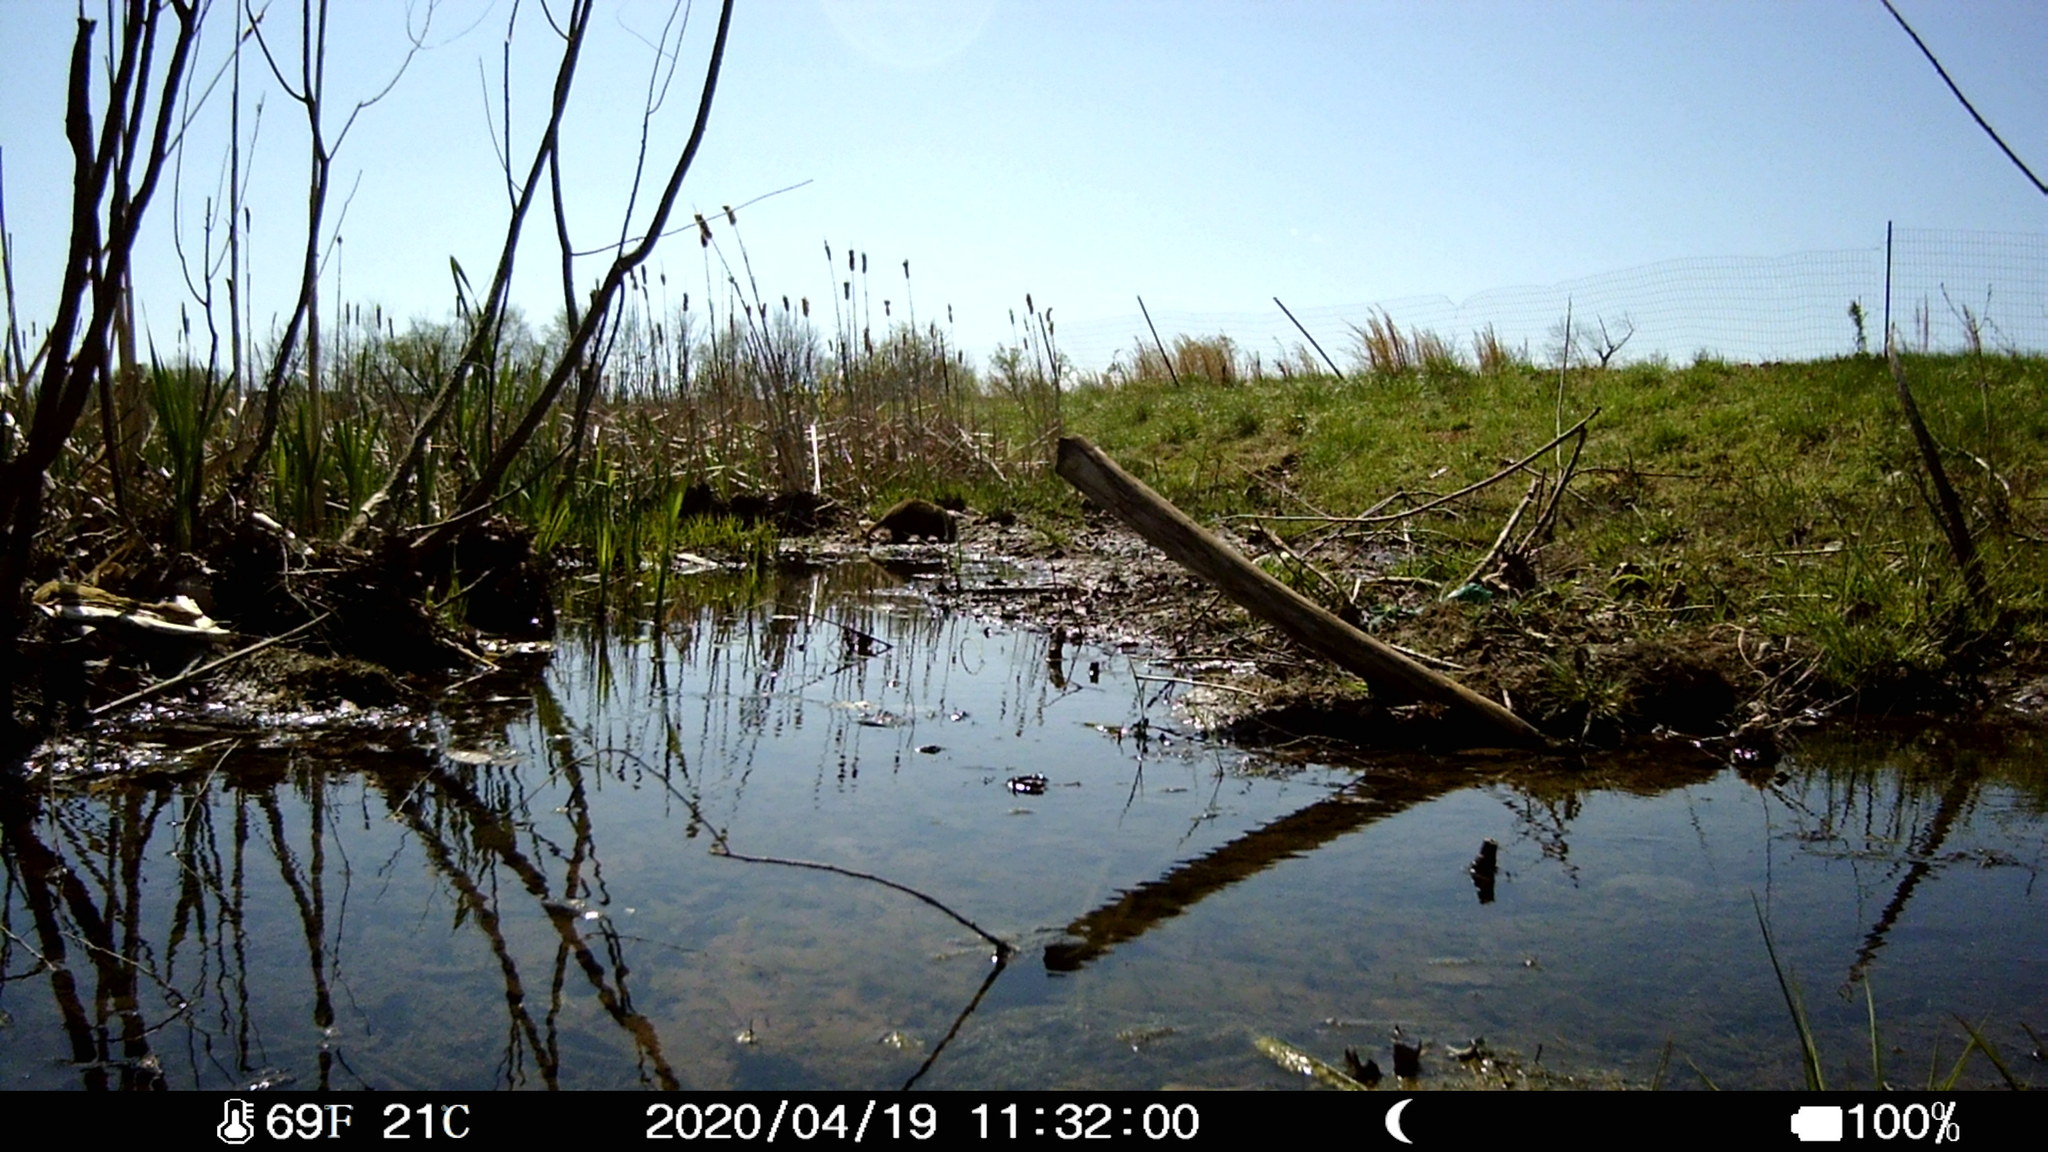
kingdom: Animalia
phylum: Chordata
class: Mammalia
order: Rodentia
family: Cricetidae
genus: Ondatra
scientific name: Ondatra zibethicus
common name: Muskrat
